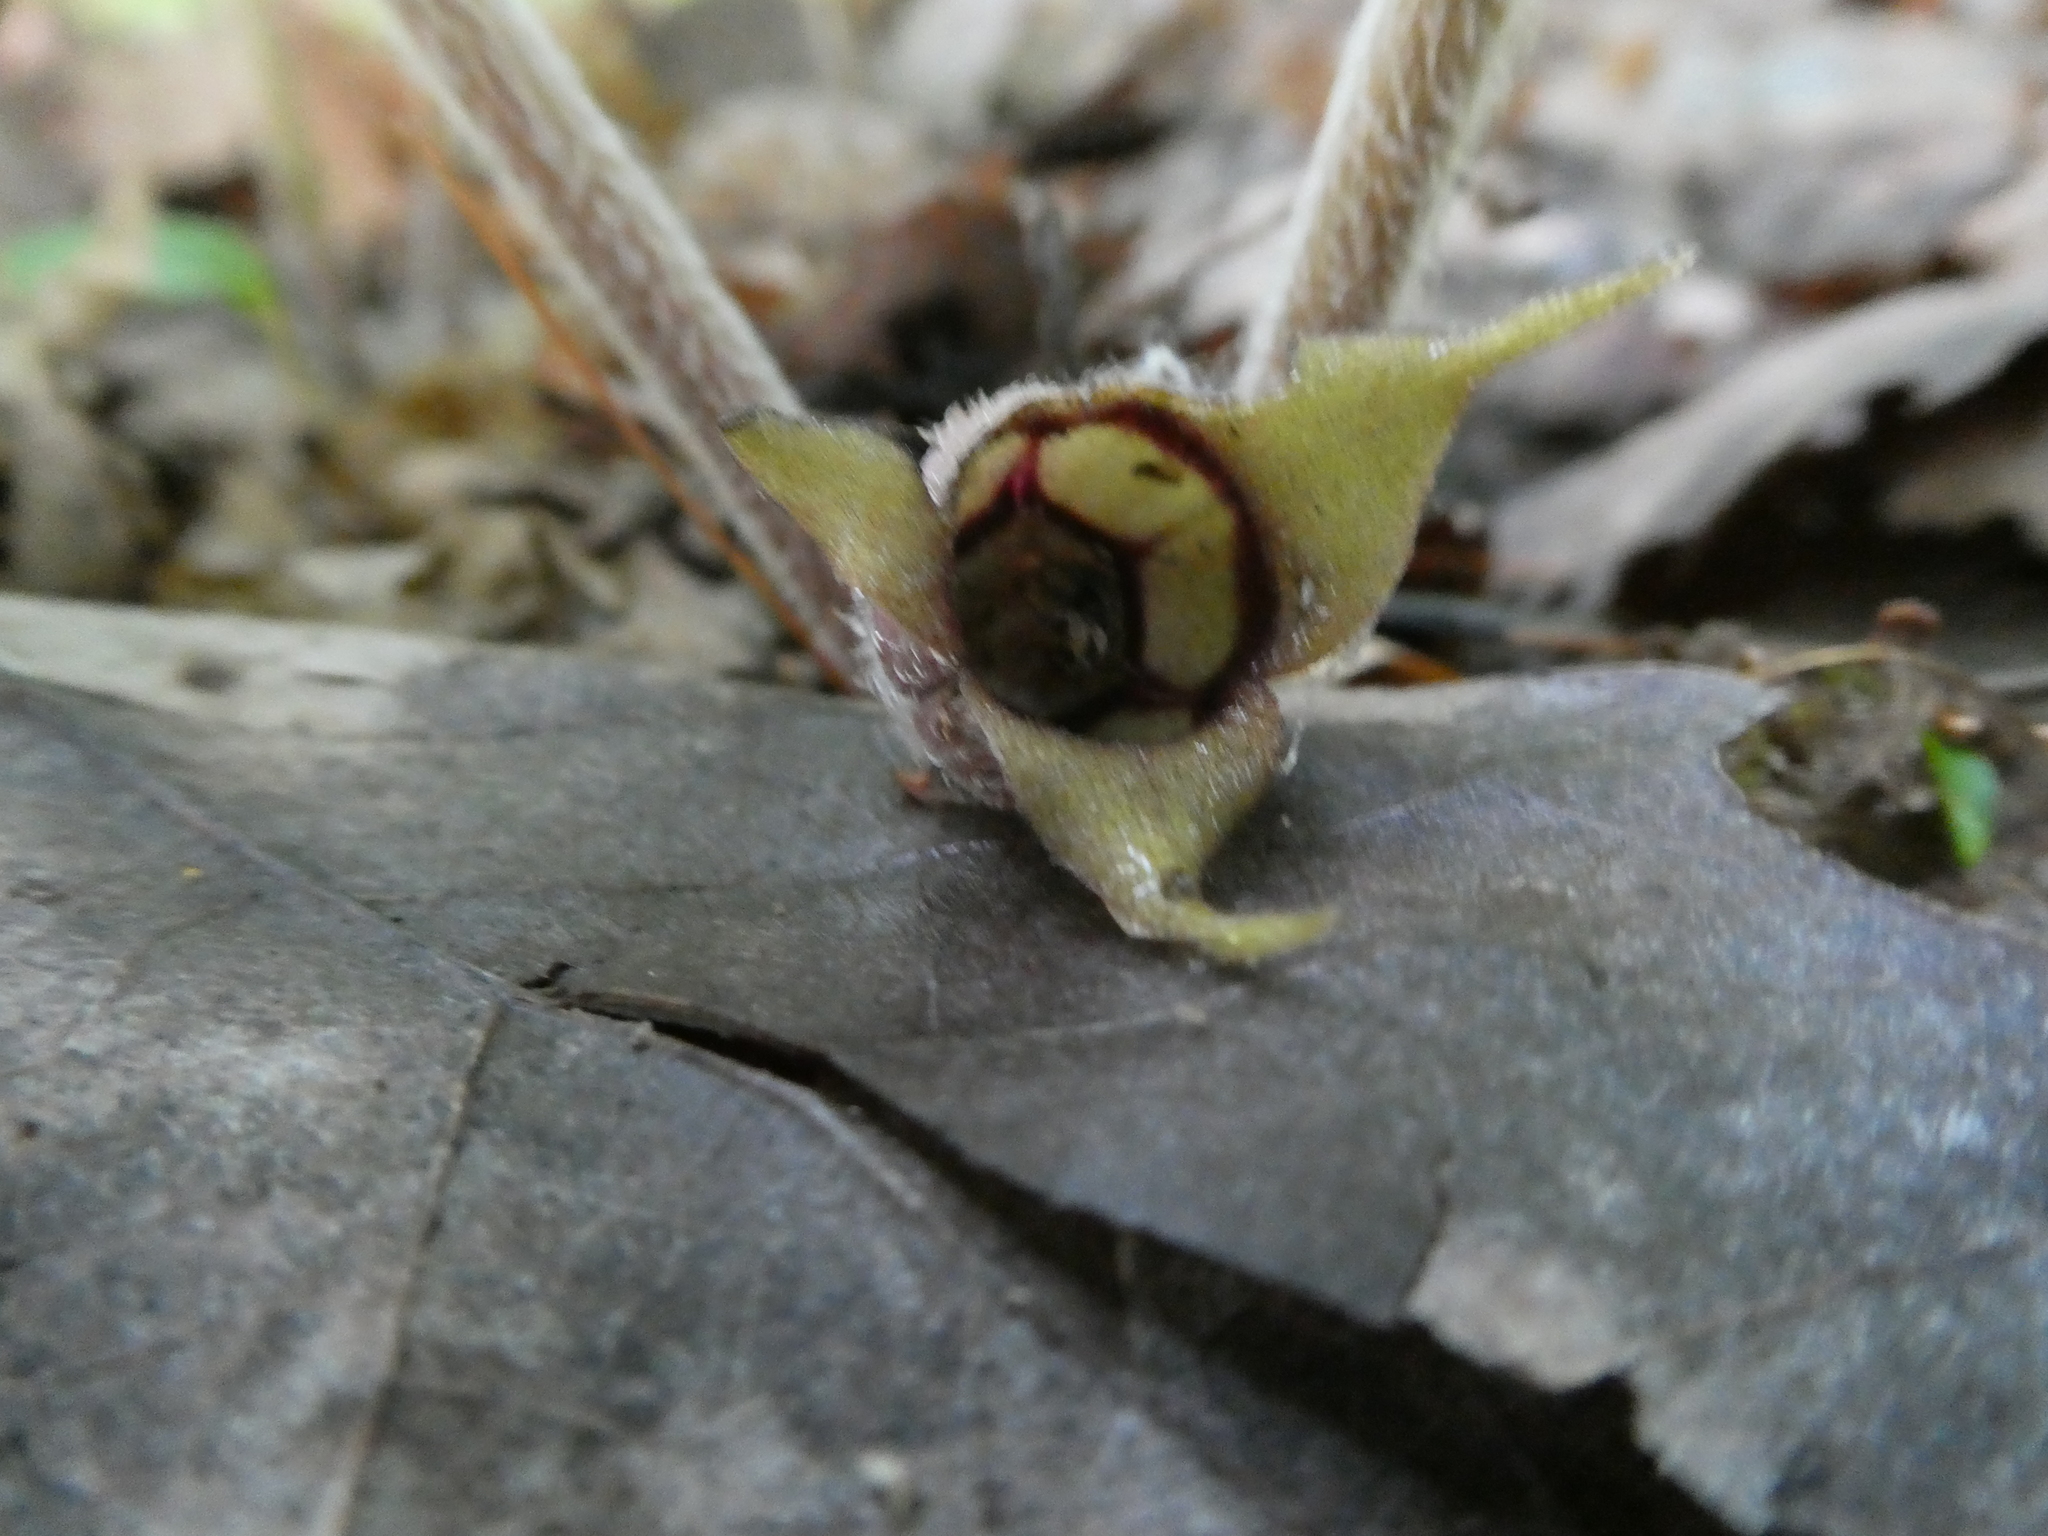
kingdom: Plantae
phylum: Tracheophyta
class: Magnoliopsida
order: Piperales
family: Aristolochiaceae
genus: Asarum
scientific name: Asarum canadense
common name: Wild ginger
